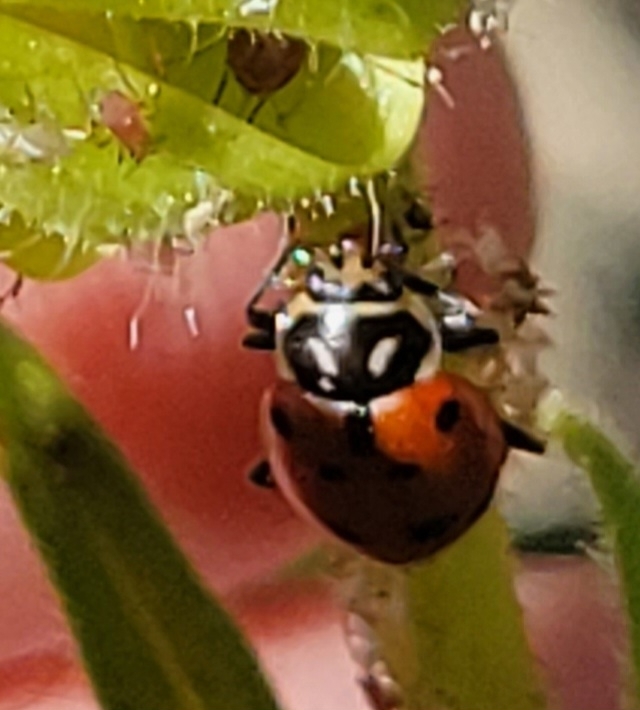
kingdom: Animalia
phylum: Arthropoda
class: Insecta
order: Coleoptera
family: Coccinellidae
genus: Hippodamia
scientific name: Hippodamia convergens
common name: Convergent lady beetle
